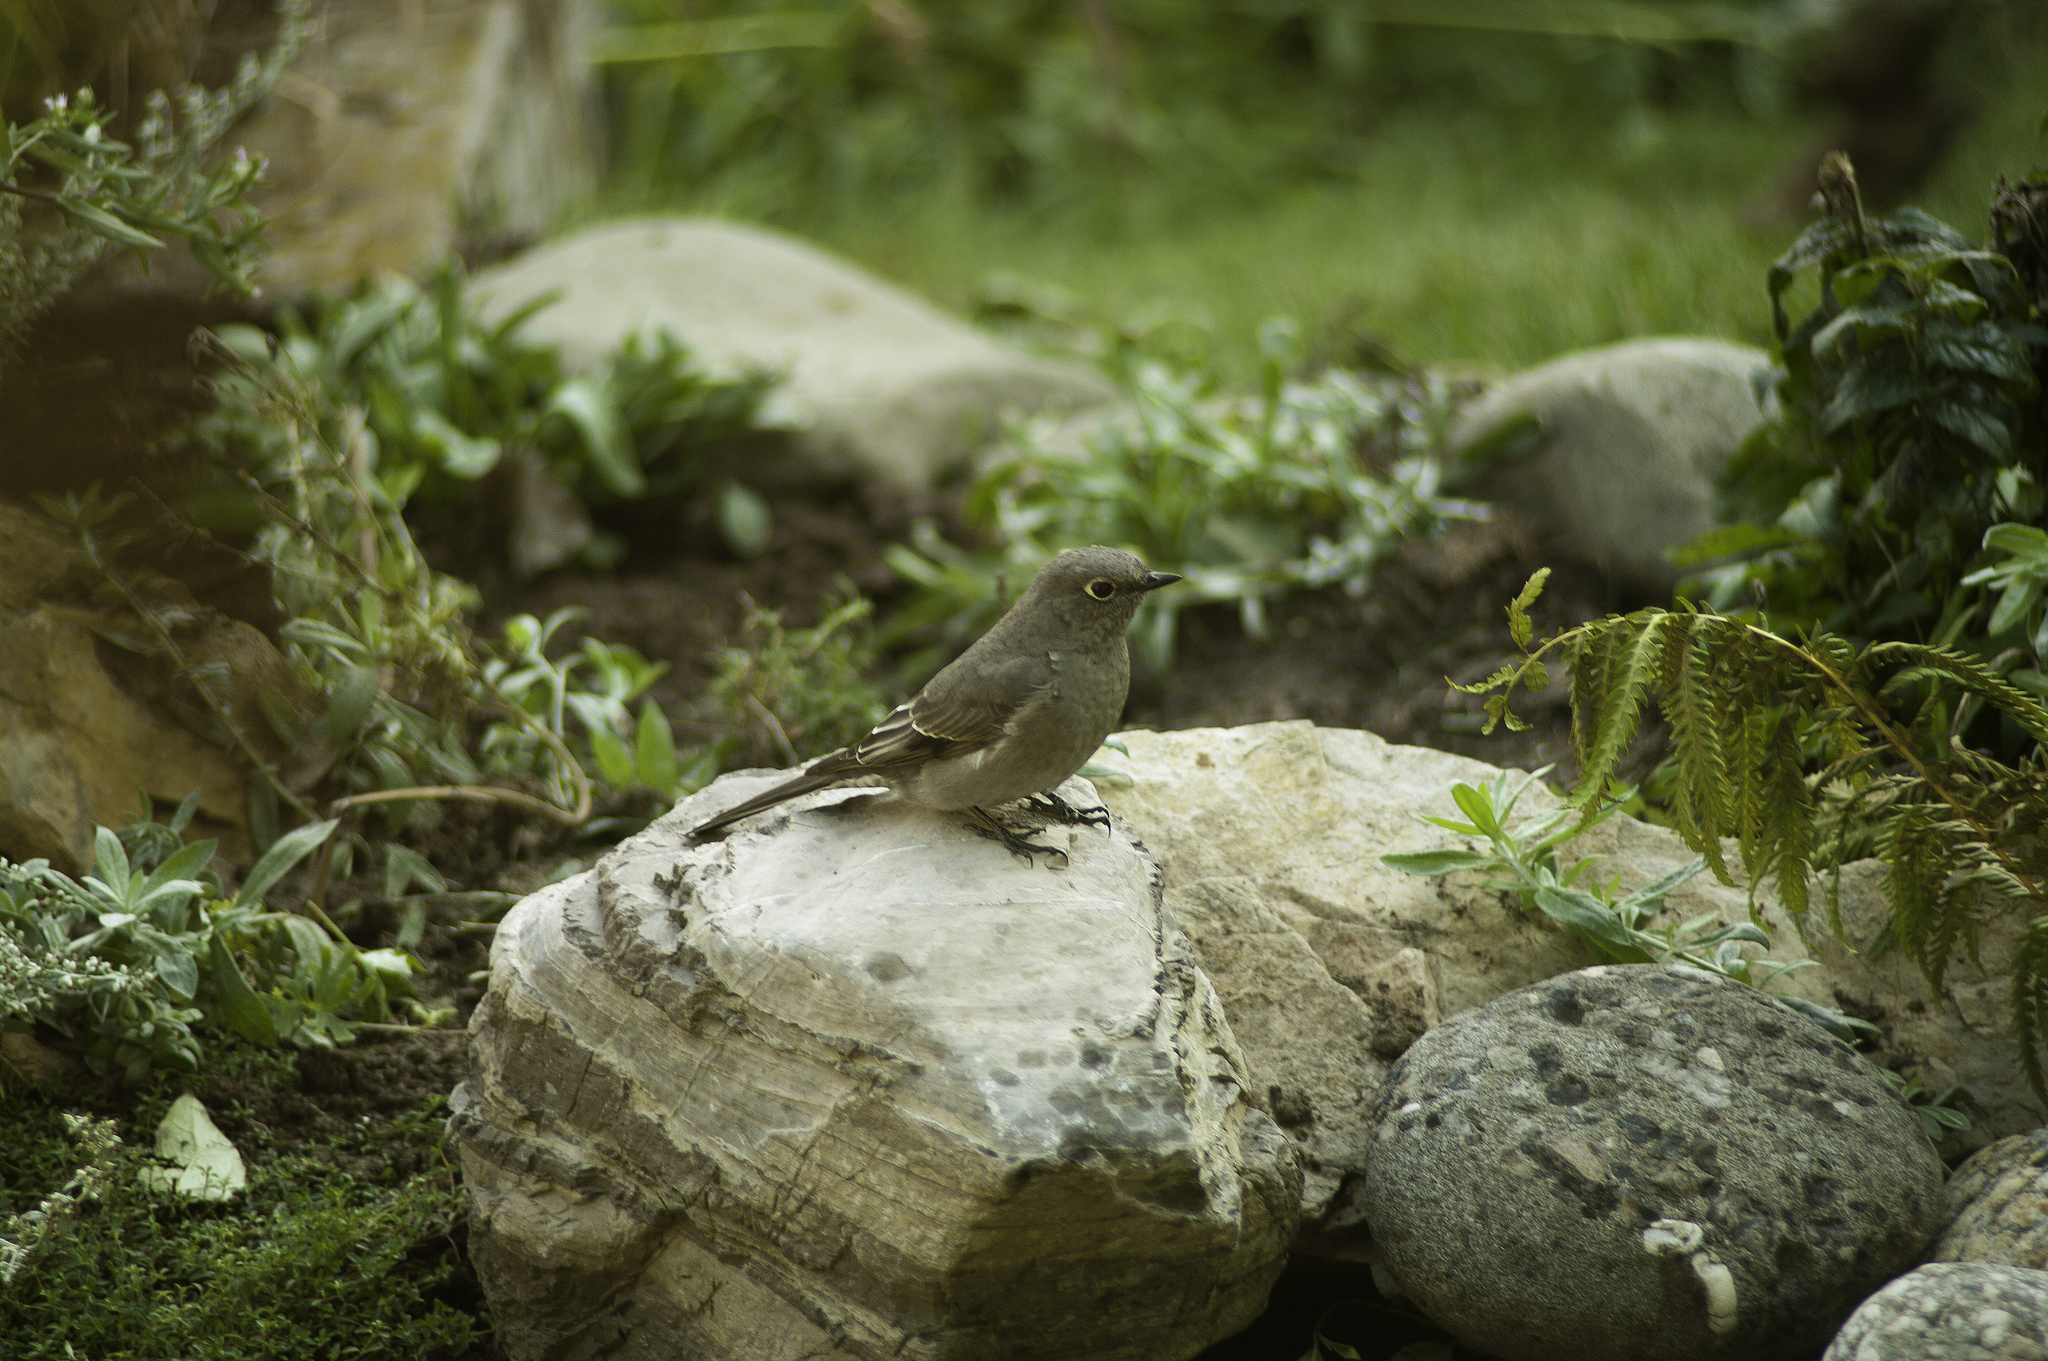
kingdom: Animalia
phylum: Chordata
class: Aves
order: Passeriformes
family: Turdidae
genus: Myadestes
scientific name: Myadestes townsendi
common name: Townsend's solitaire
